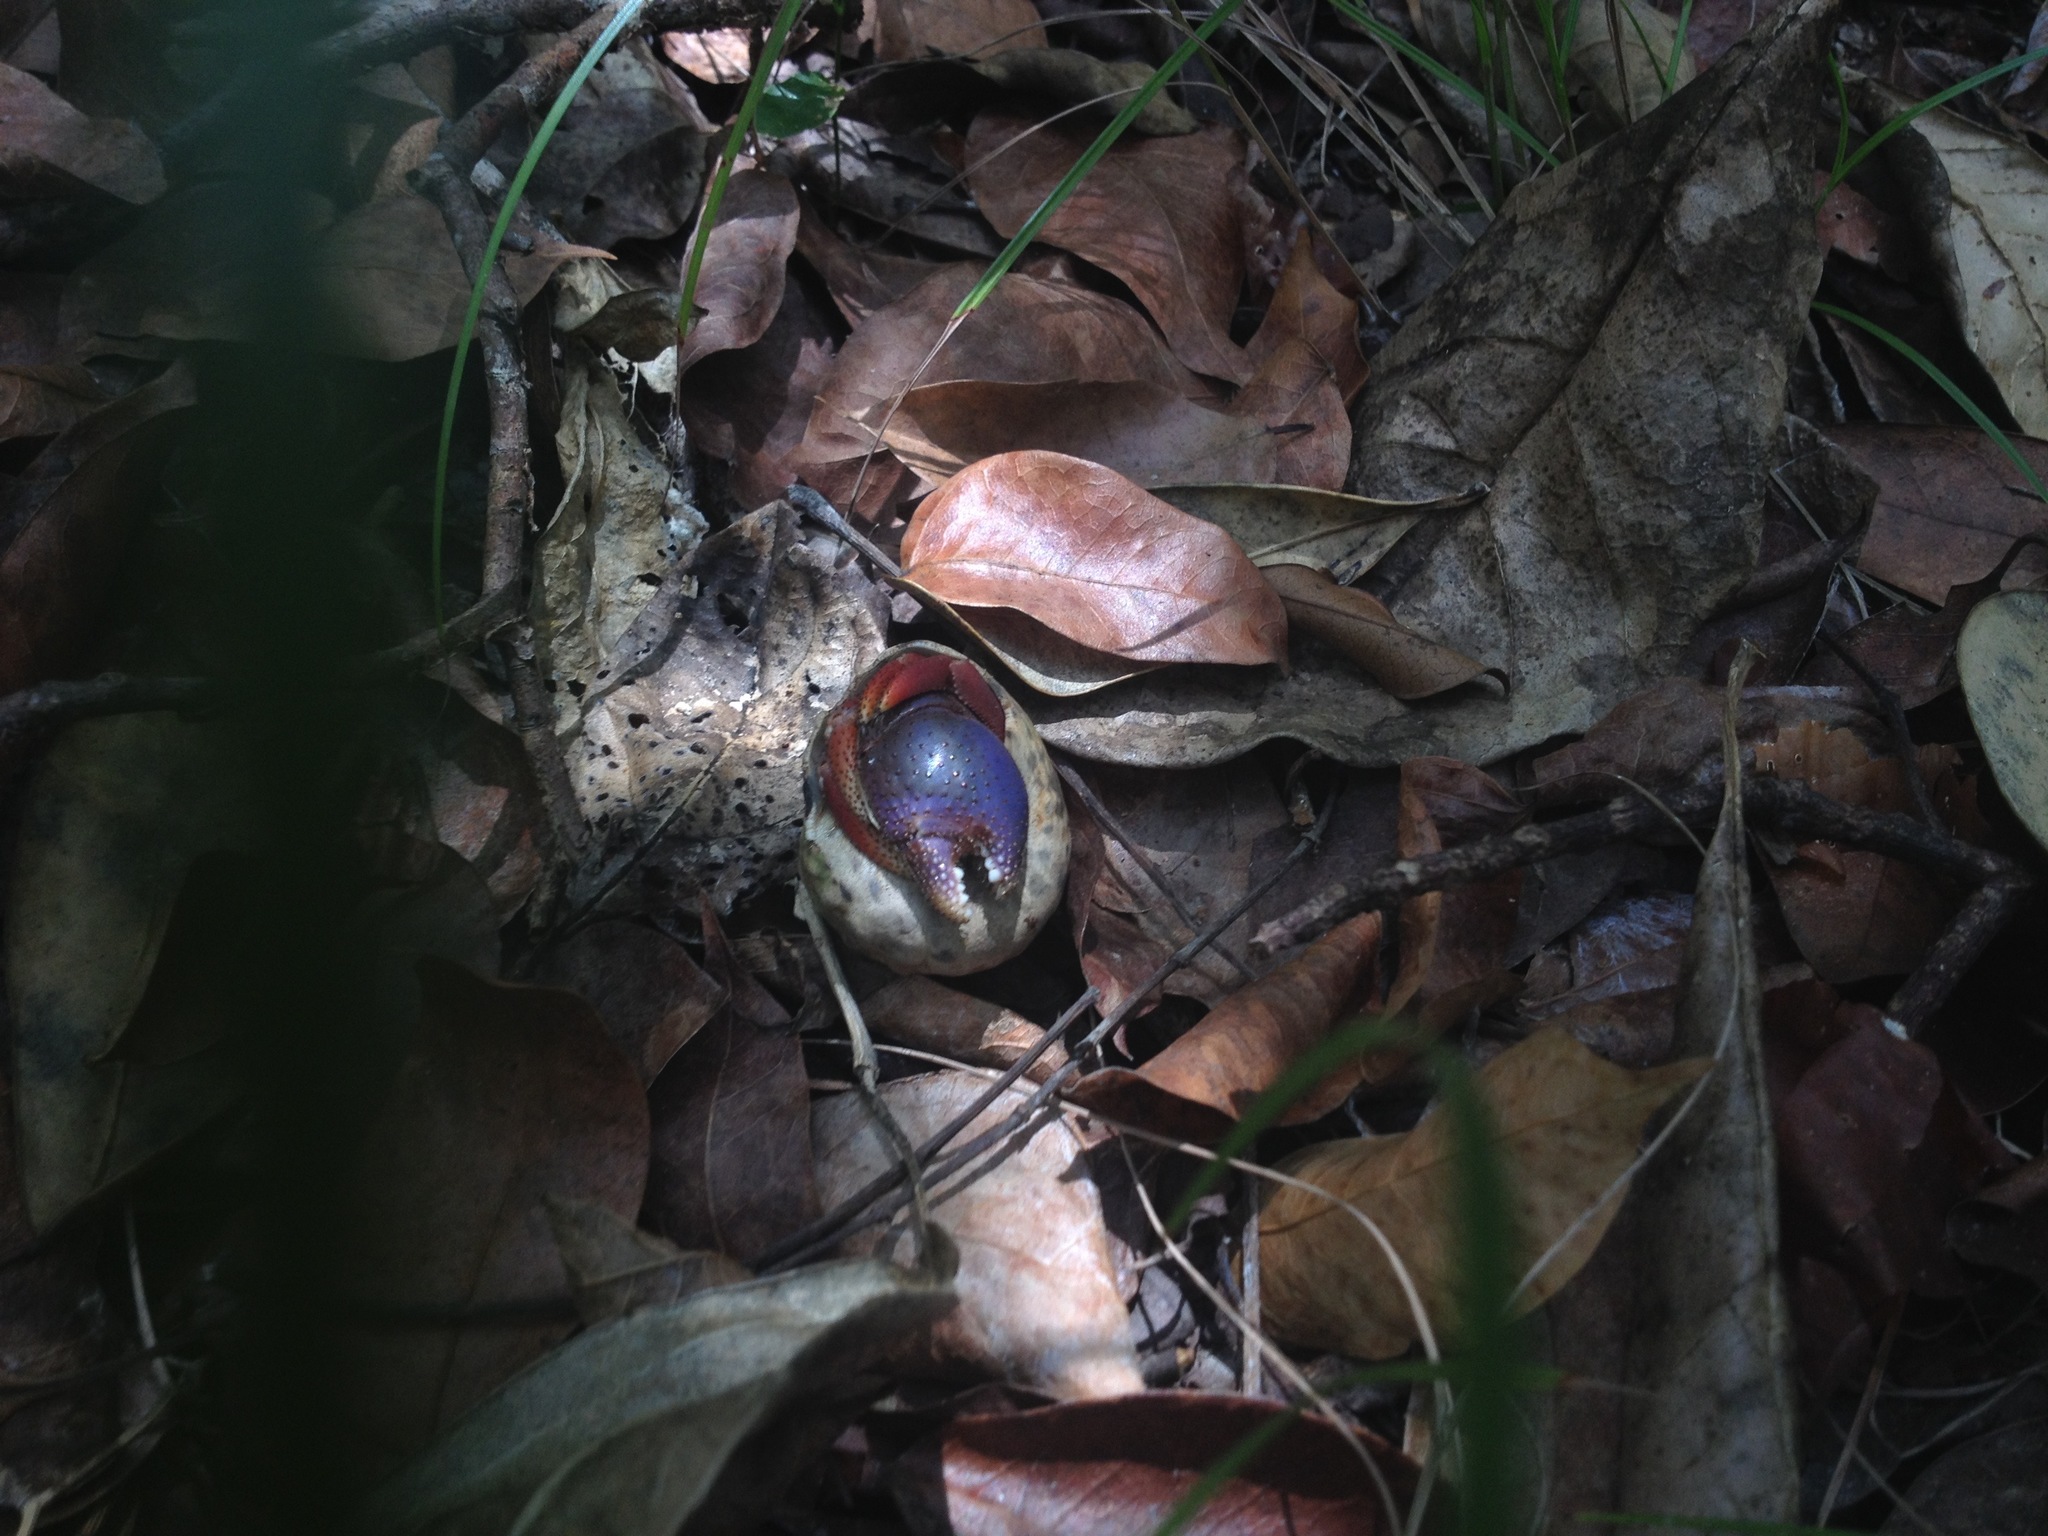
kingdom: Animalia
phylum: Arthropoda
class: Malacostraca
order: Decapoda
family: Coenobitidae
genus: Coenobita
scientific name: Coenobita clypeatus
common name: Caribbean hermit crab
